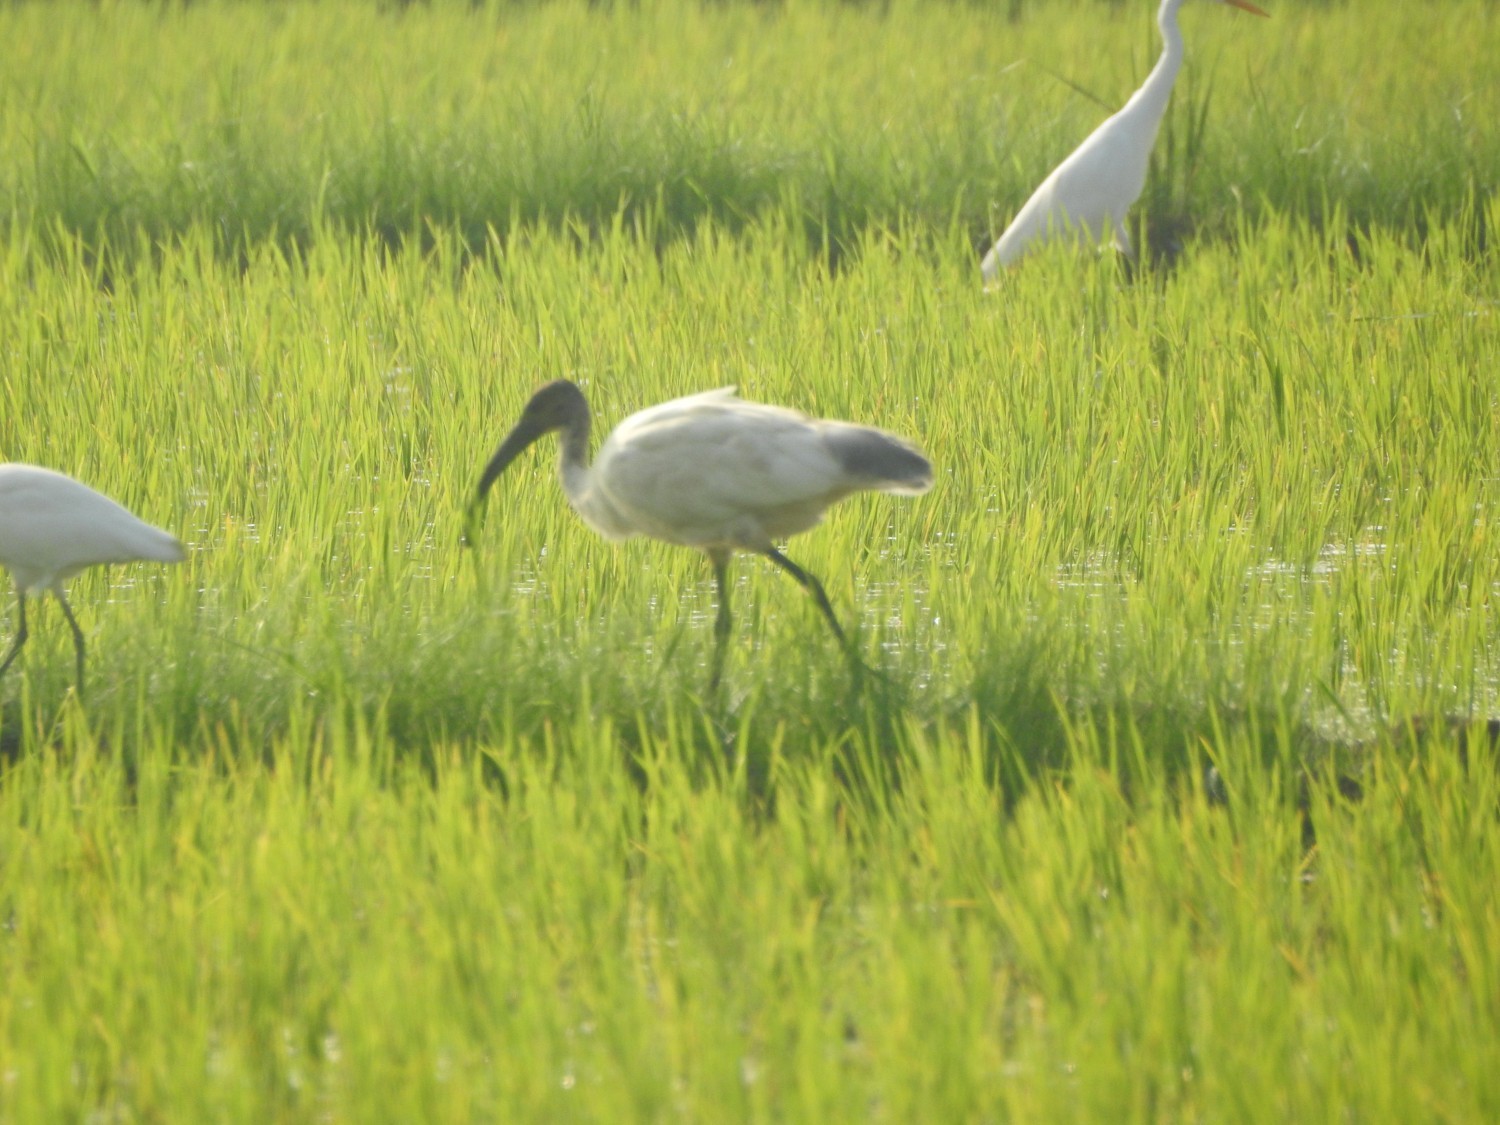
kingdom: Animalia
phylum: Chordata
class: Aves
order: Pelecaniformes
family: Threskiornithidae
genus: Threskiornis
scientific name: Threskiornis melanocephalus
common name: Black-headed ibis
